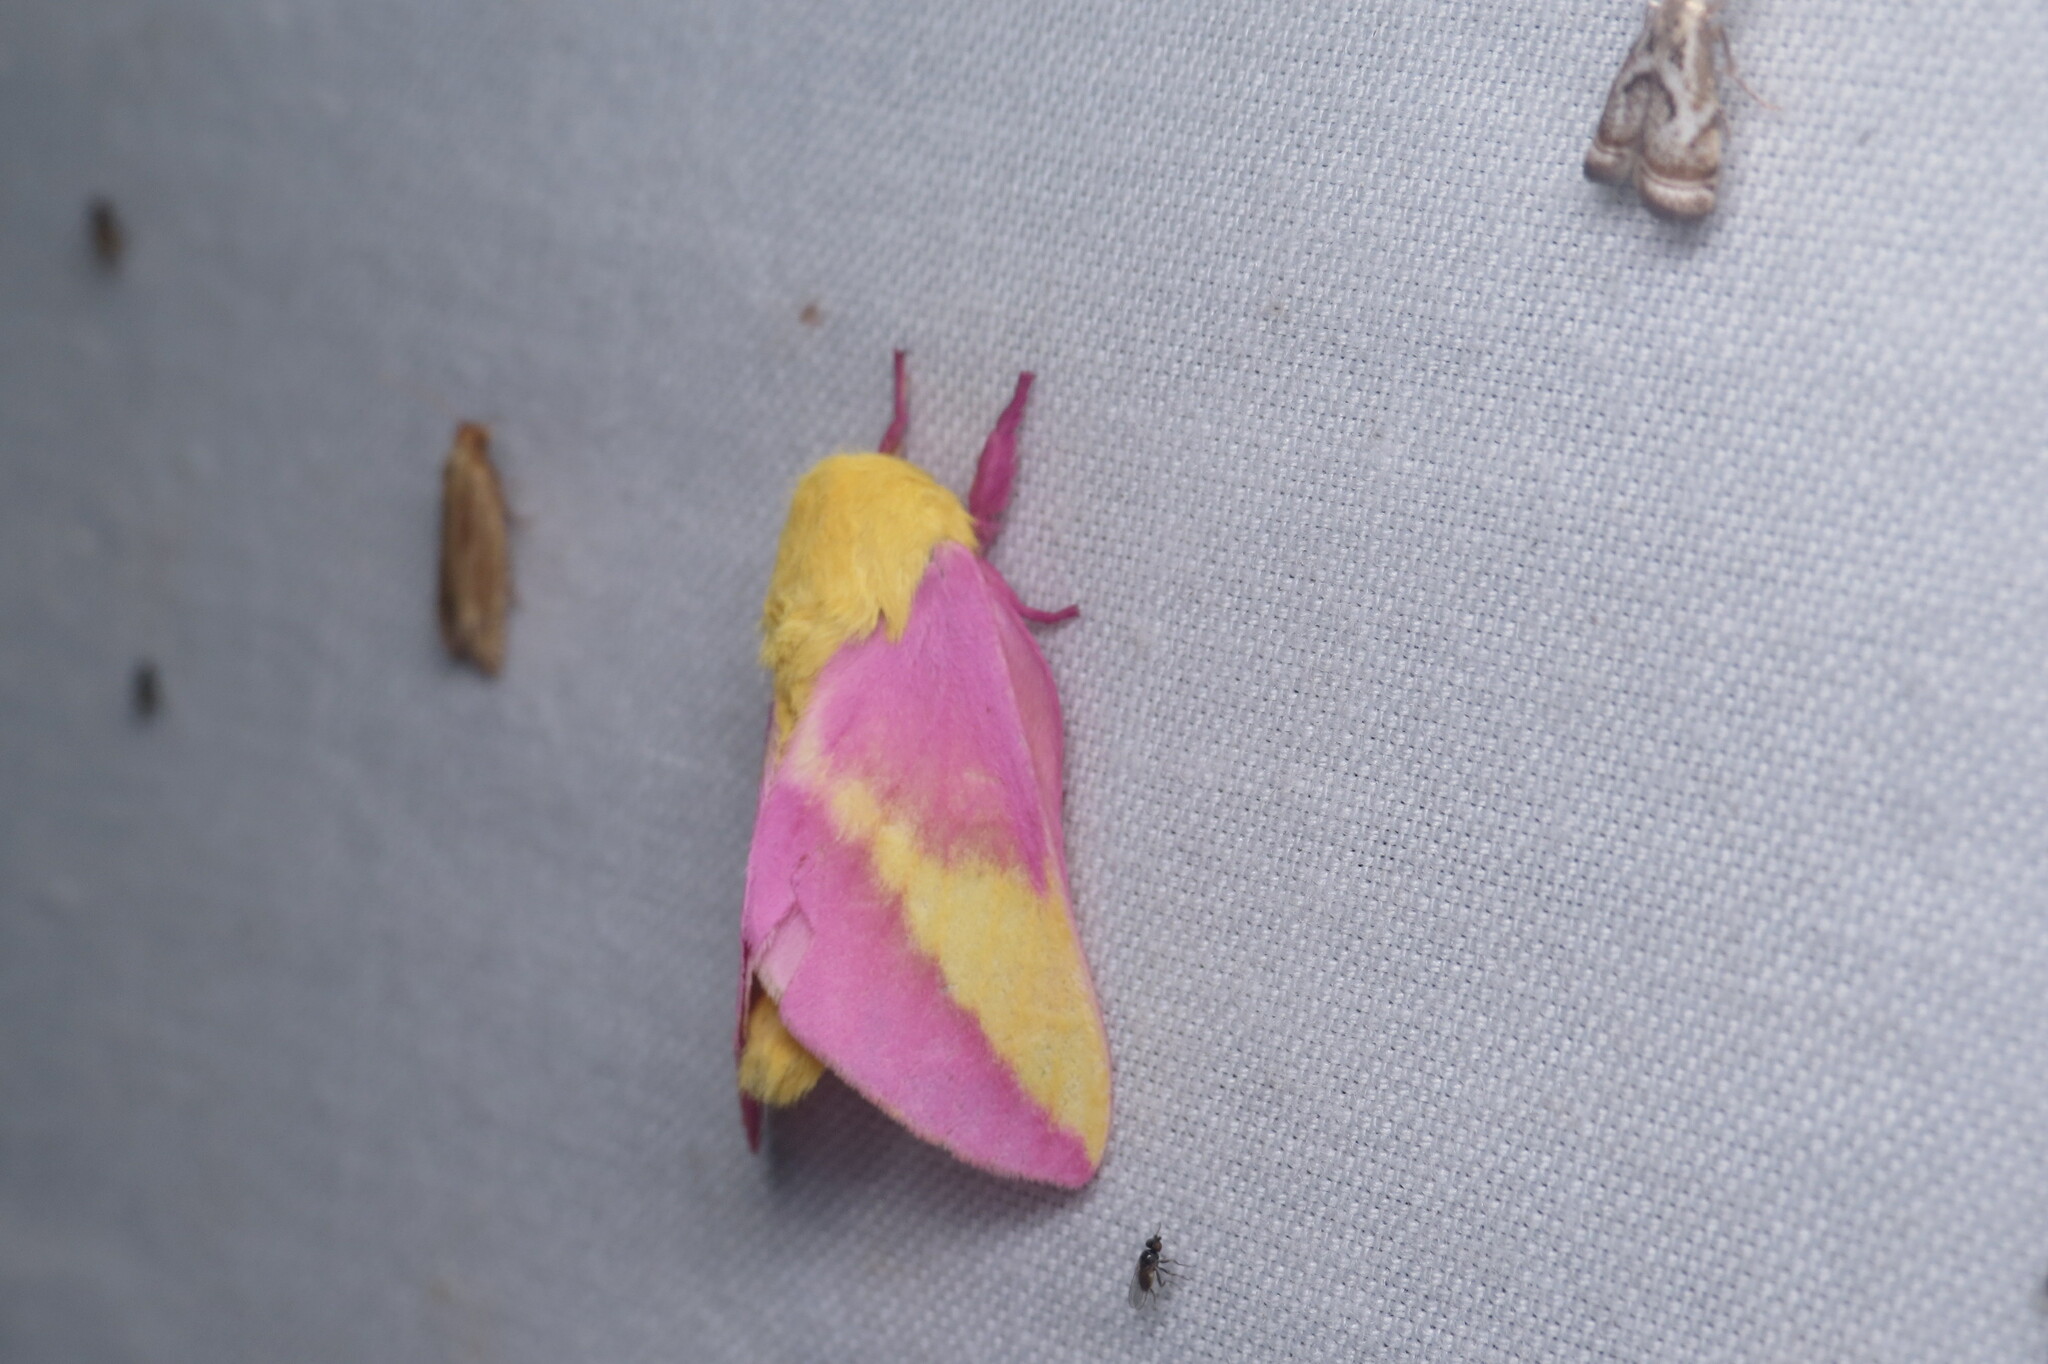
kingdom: Animalia
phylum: Arthropoda
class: Insecta
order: Lepidoptera
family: Saturniidae
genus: Dryocampa
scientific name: Dryocampa rubicunda
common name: Rosy maple moth
